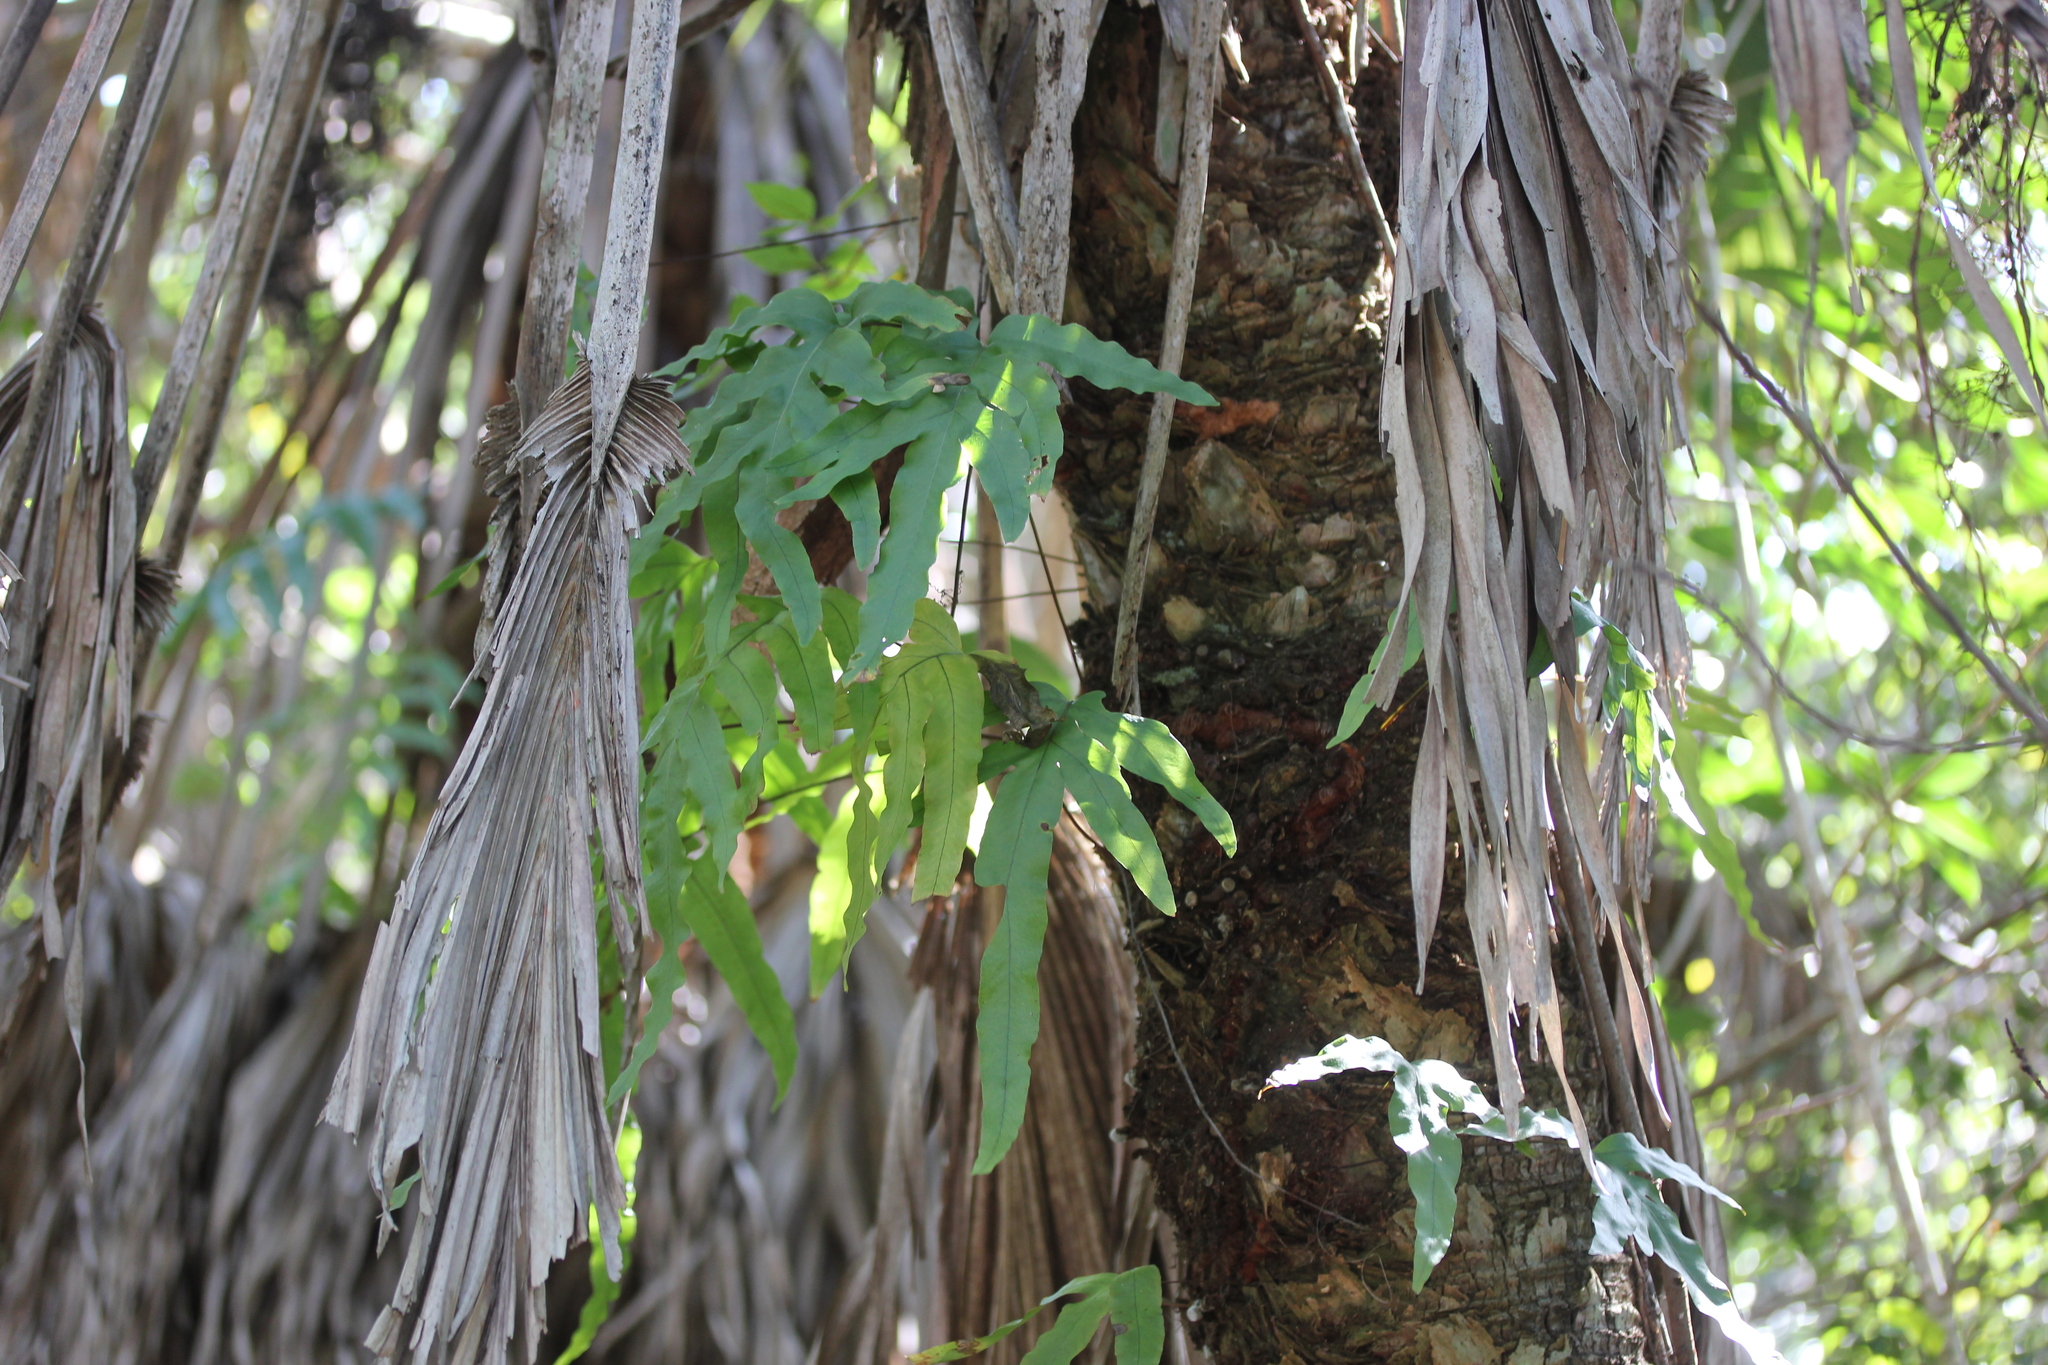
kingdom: Plantae
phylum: Tracheophyta
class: Polypodiopsida
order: Polypodiales
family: Polypodiaceae
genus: Phlebodium
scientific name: Phlebodium aureum
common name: Gold-foot fern
